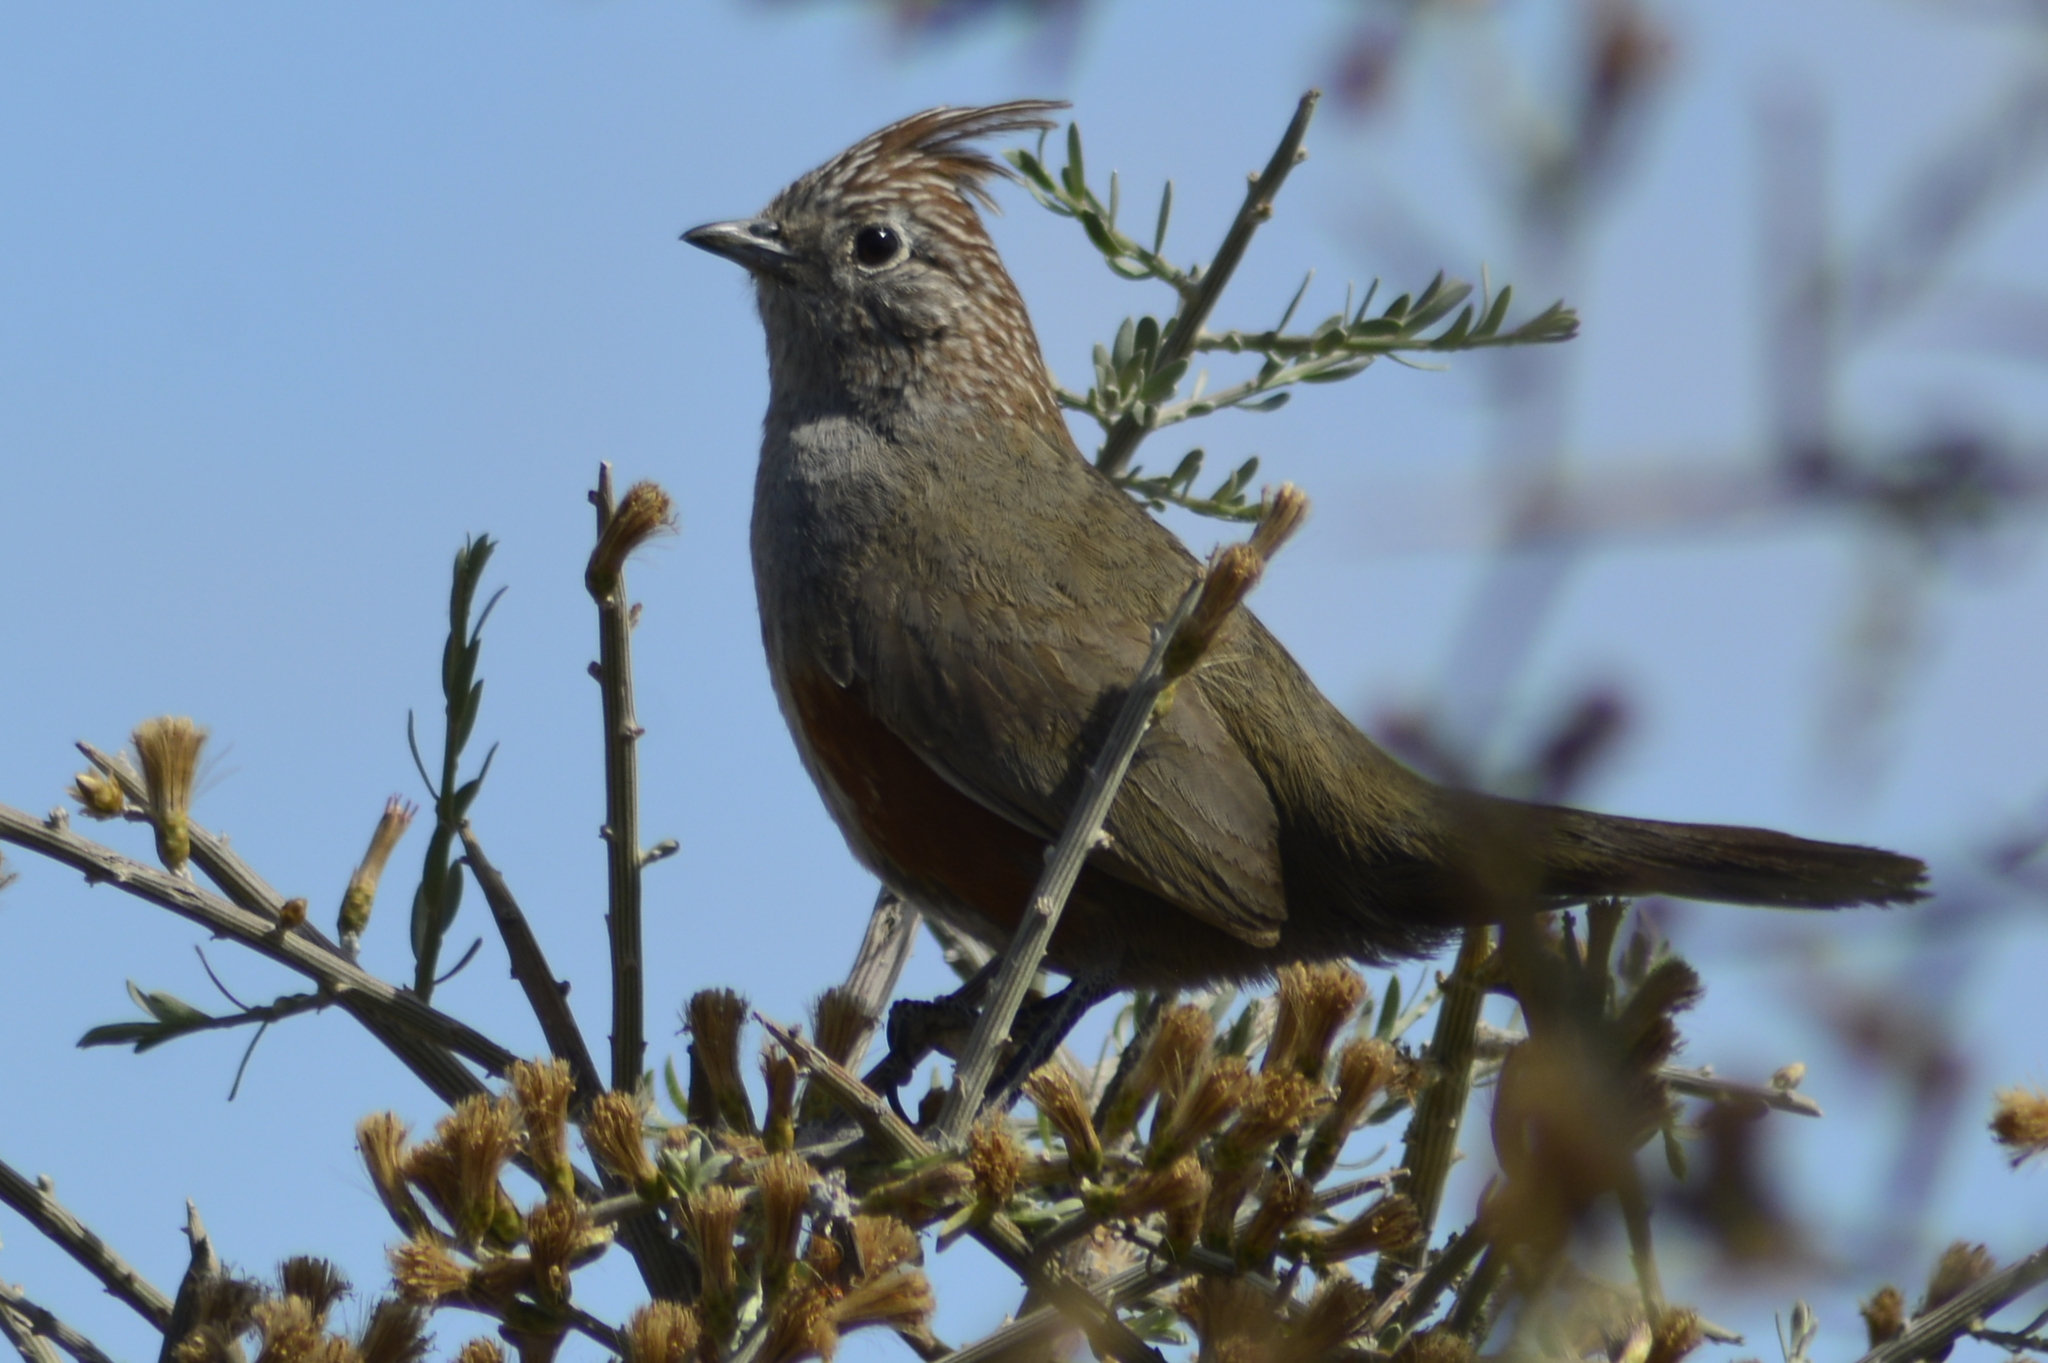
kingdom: Animalia
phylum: Chordata
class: Aves
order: Passeriformes
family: Rhinocryptidae
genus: Rhinocrypta
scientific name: Rhinocrypta lanceolata
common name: Crested gallito
